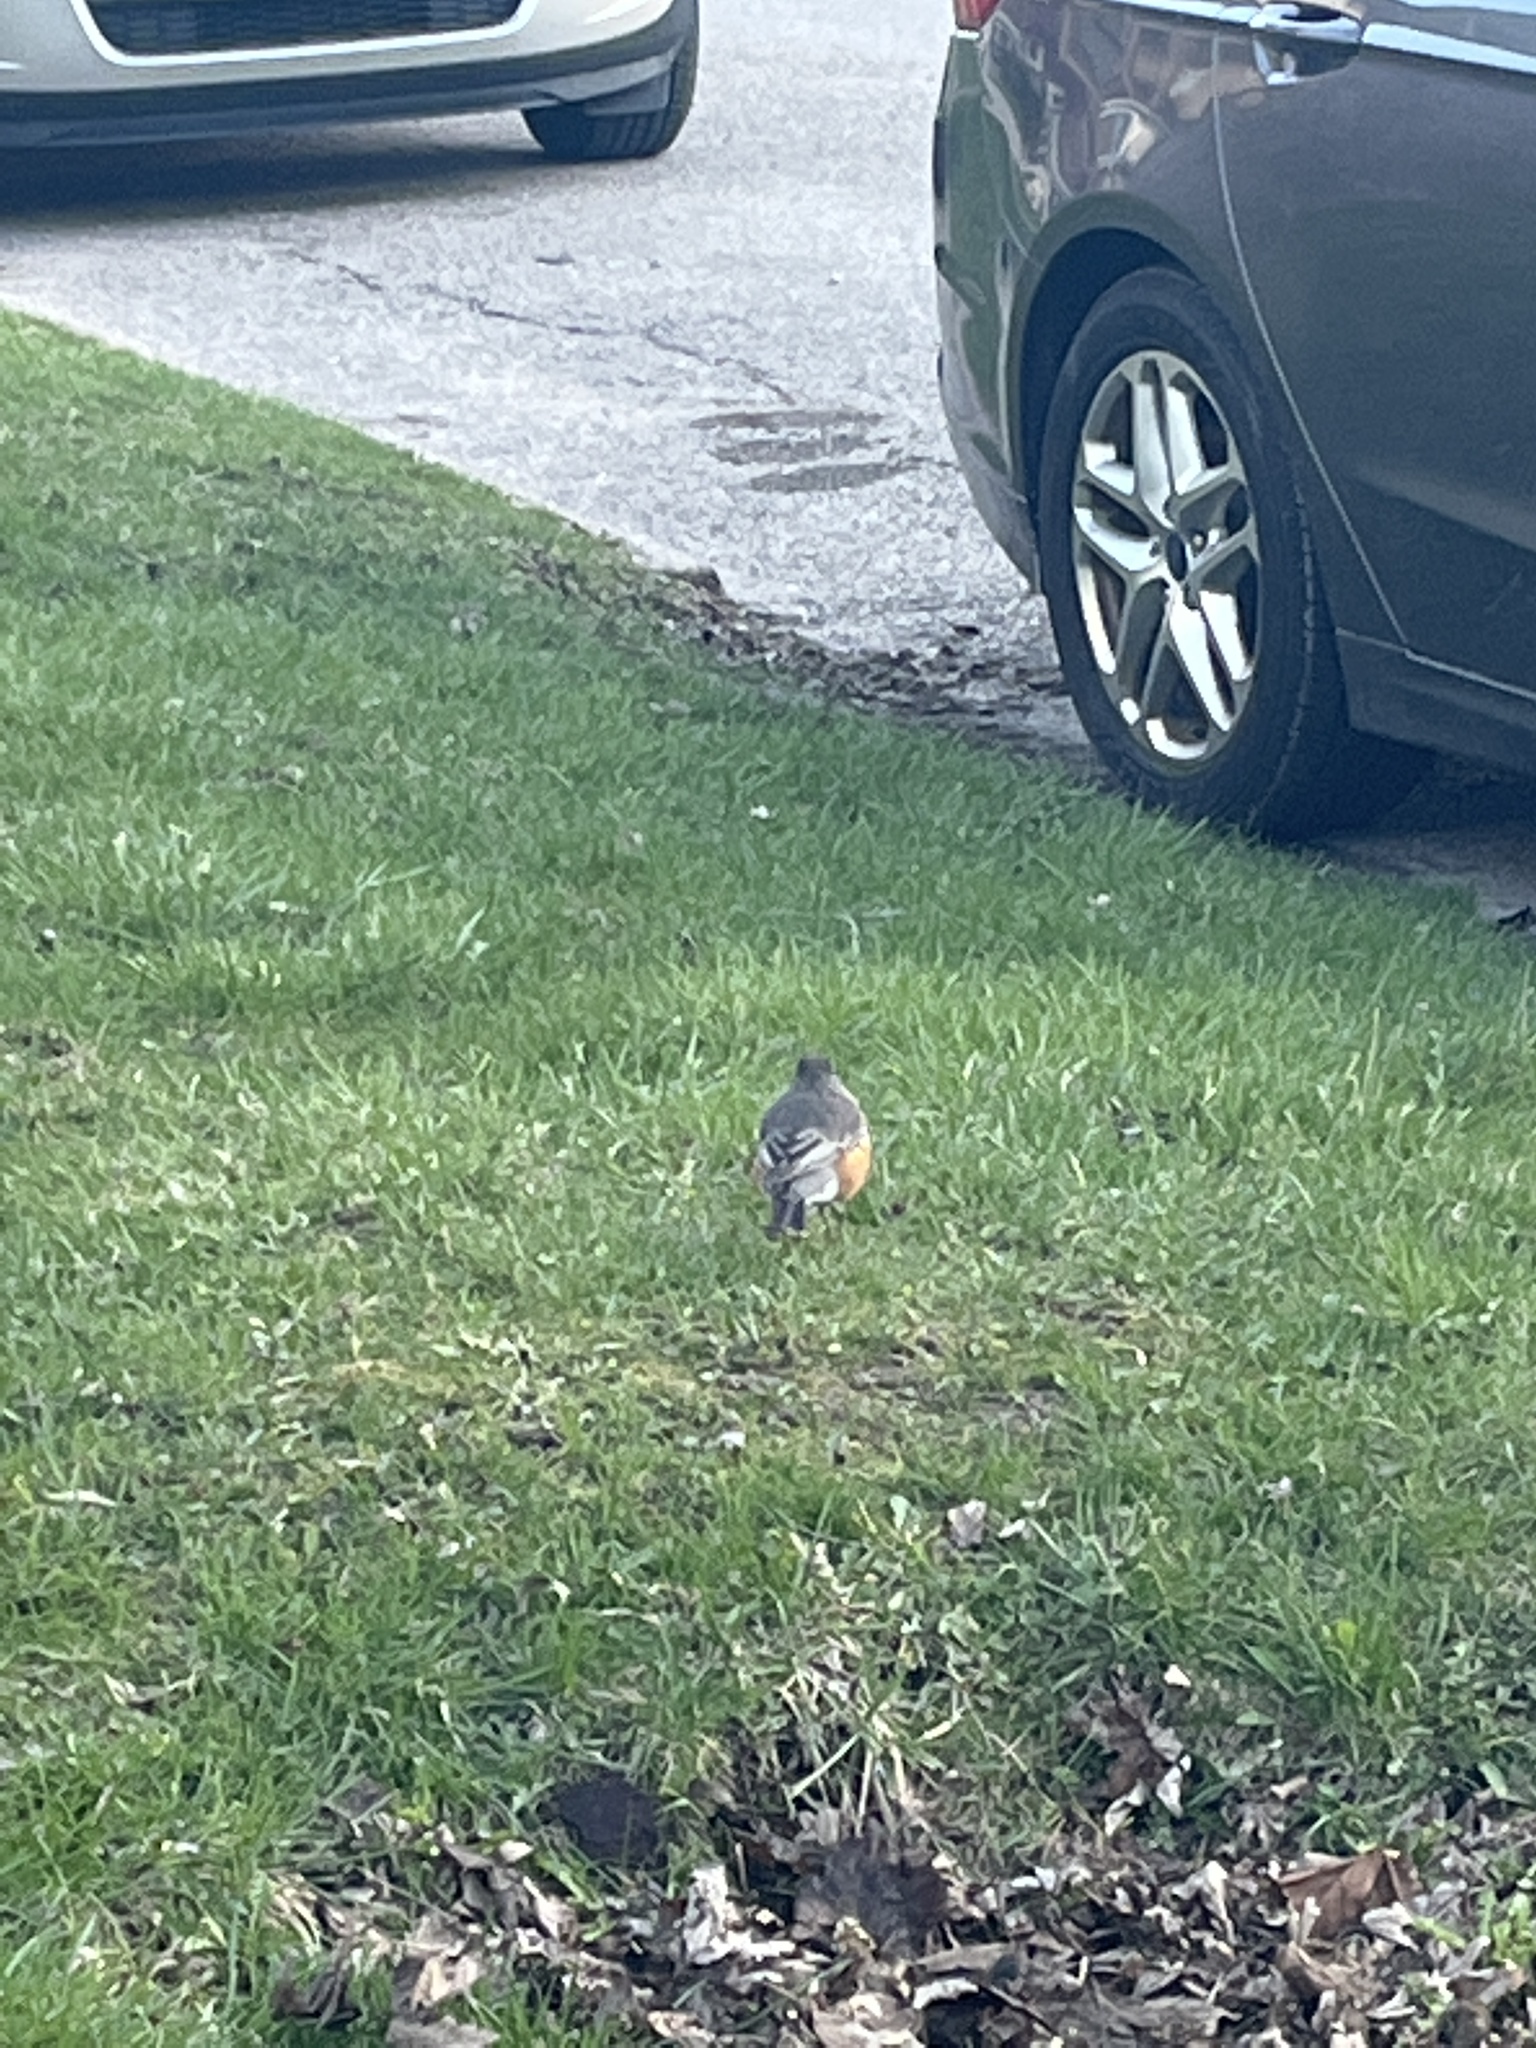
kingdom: Animalia
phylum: Chordata
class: Aves
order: Passeriformes
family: Turdidae
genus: Turdus
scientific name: Turdus migratorius
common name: American robin
